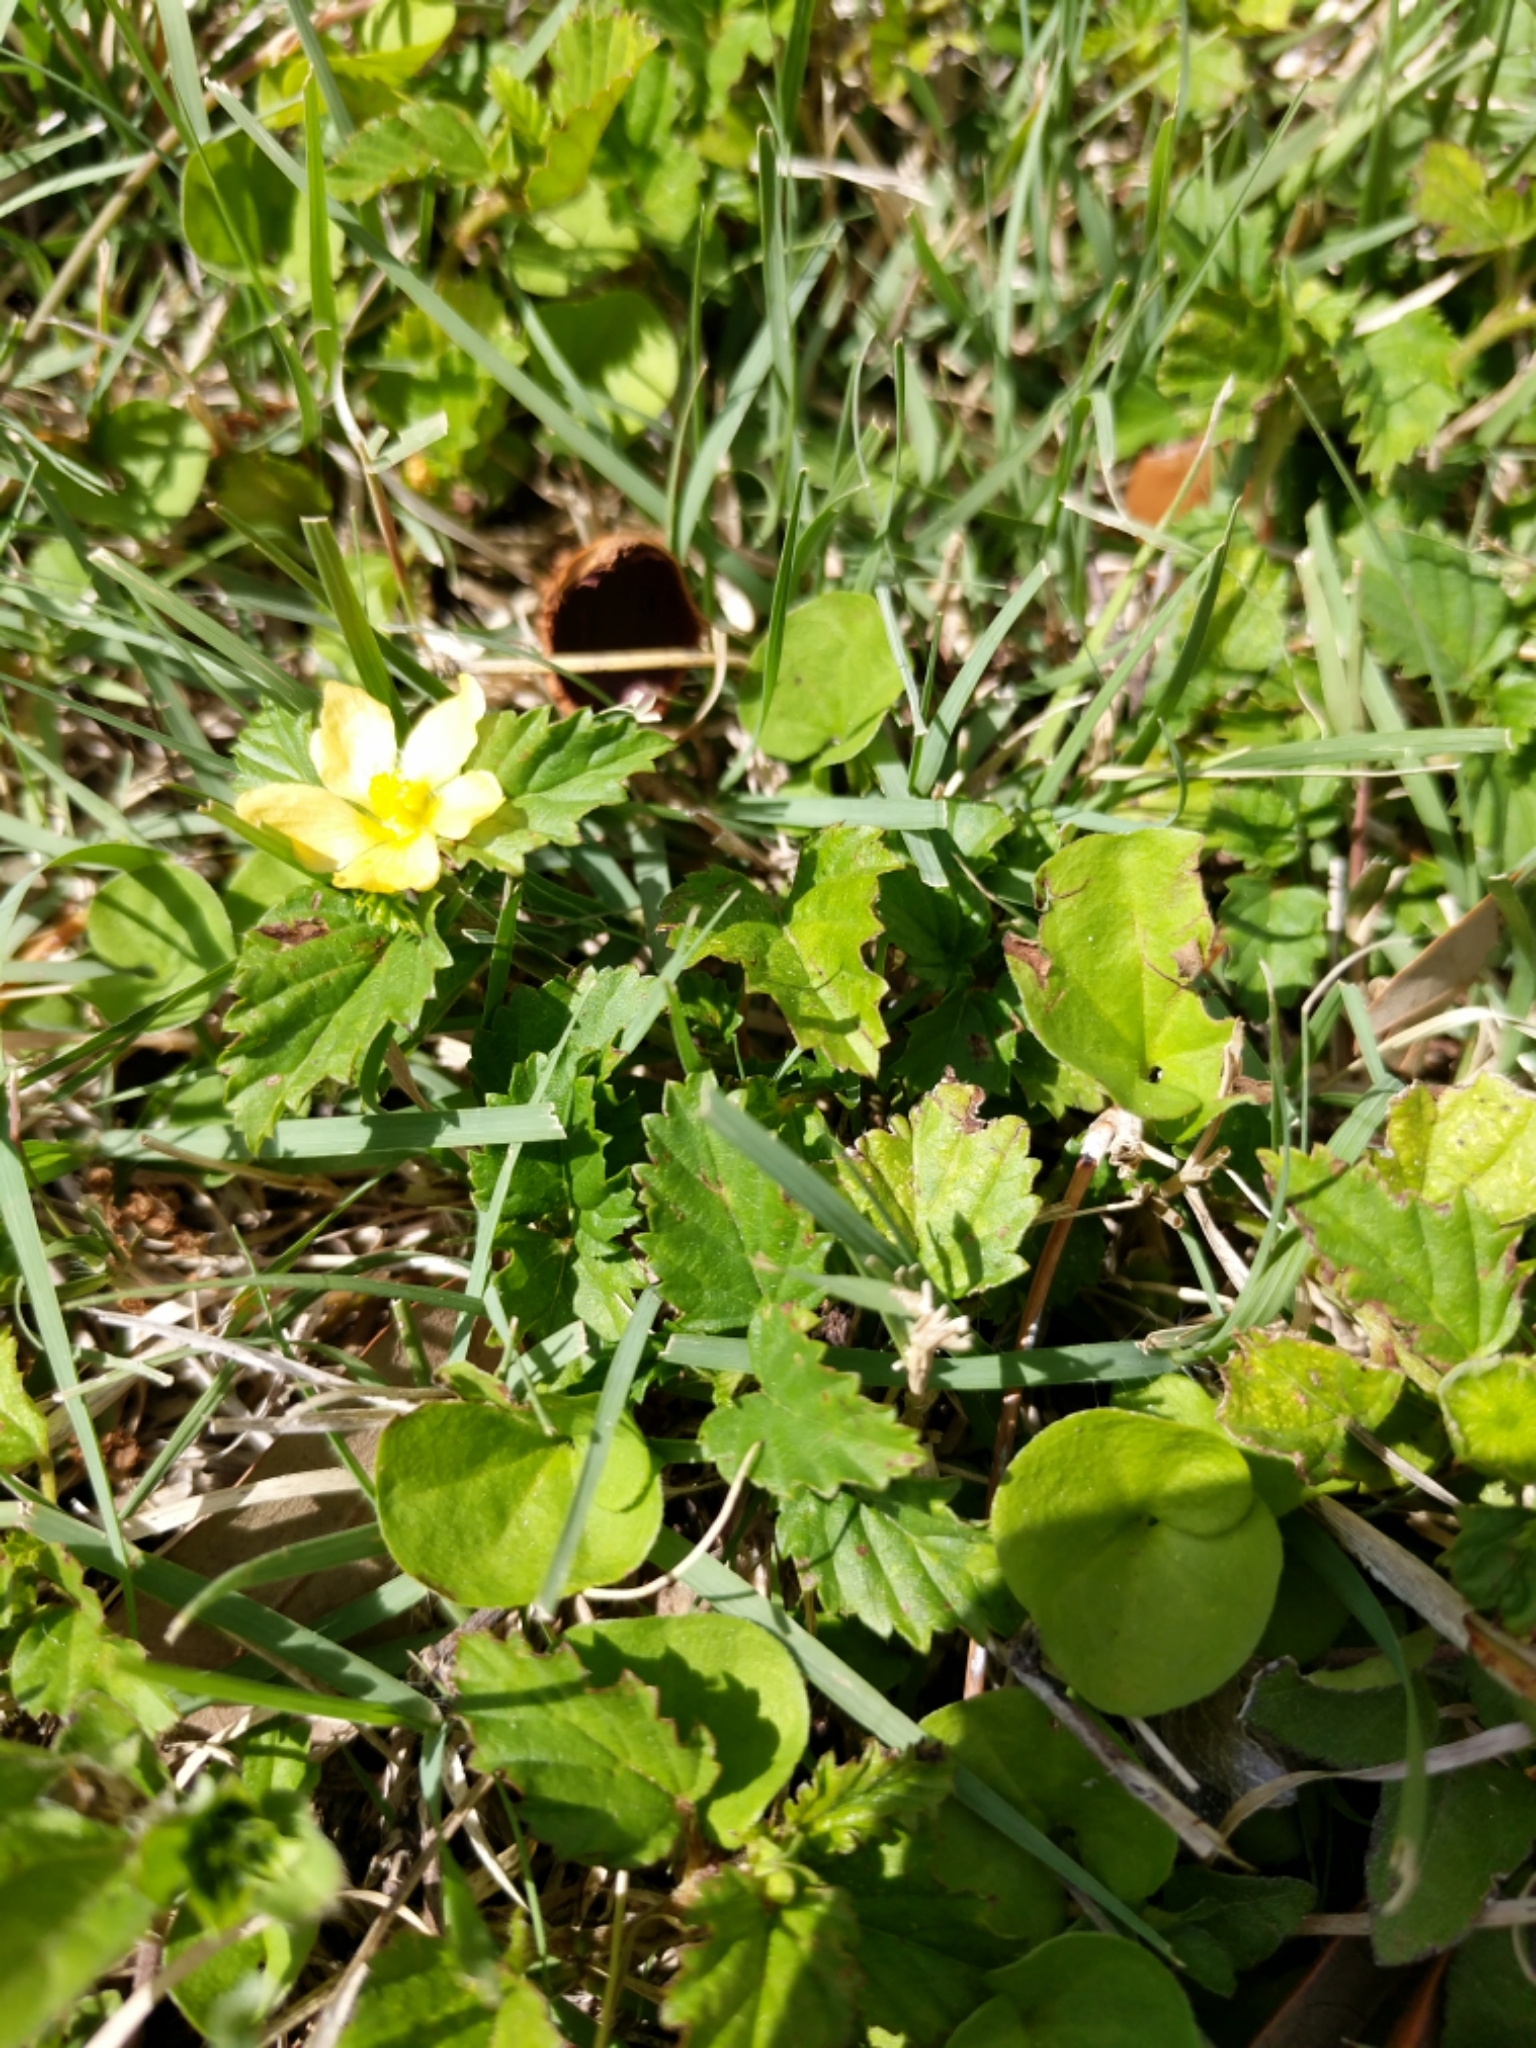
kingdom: Plantae
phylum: Tracheophyta
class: Magnoliopsida
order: Malvales
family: Malvaceae
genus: Malvastrum
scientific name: Malvastrum coromandelianum
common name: Threelobe false mallow
